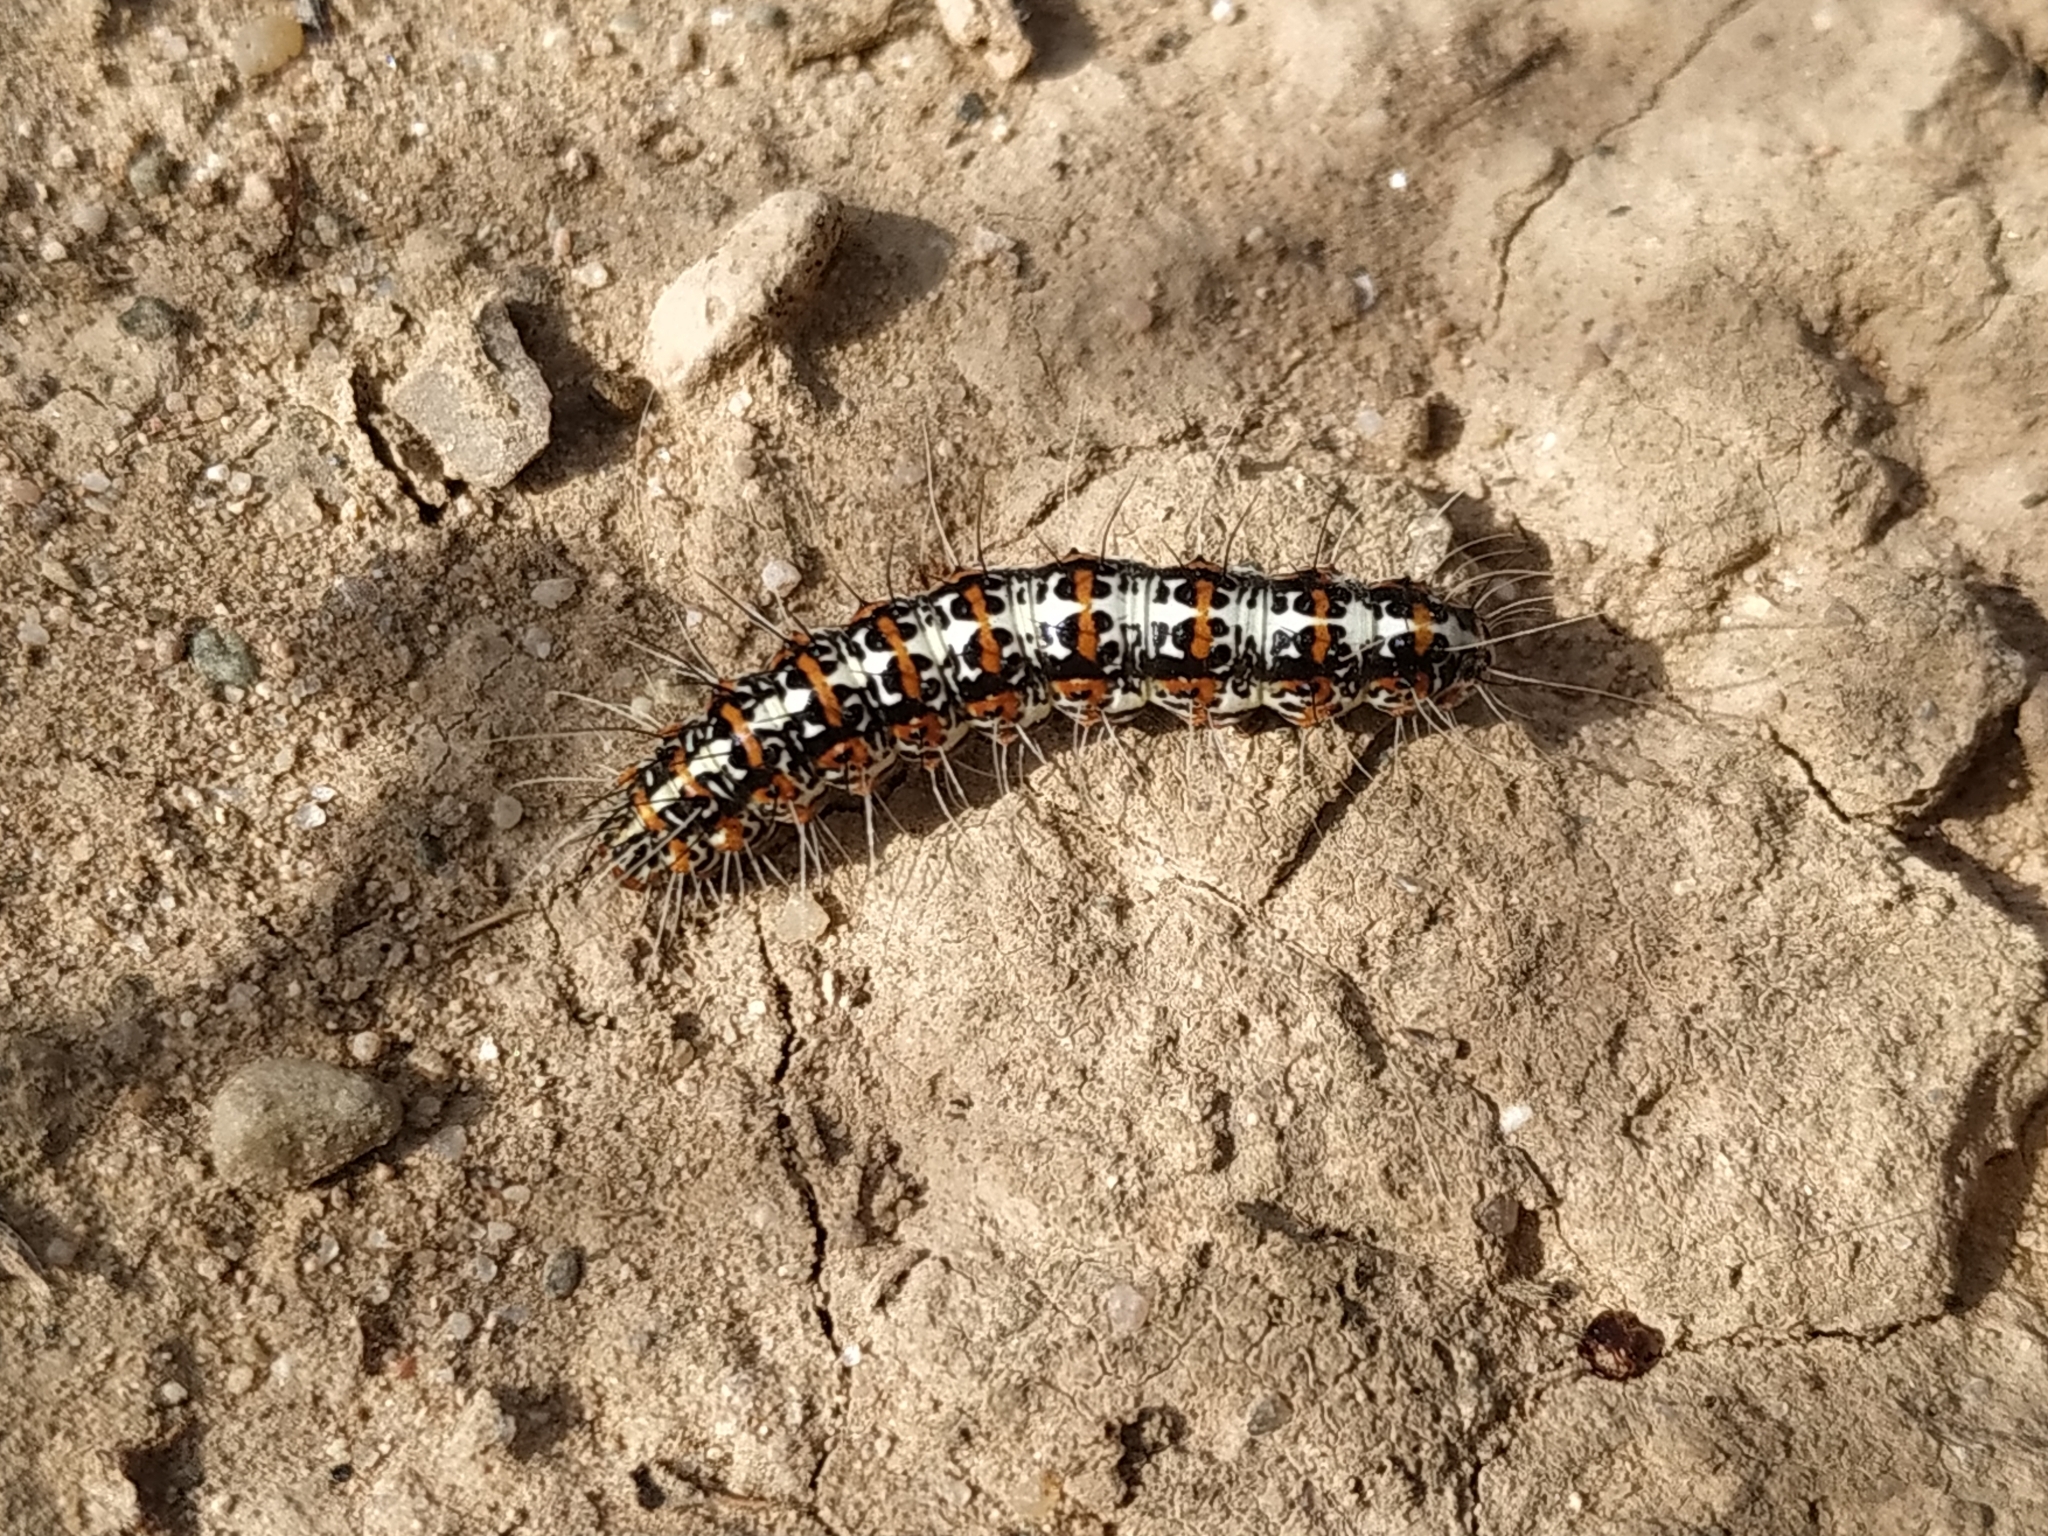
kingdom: Animalia
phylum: Arthropoda
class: Insecta
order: Lepidoptera
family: Erebidae
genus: Utetheisa
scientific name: Utetheisa pulchella
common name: Crimson speckled
